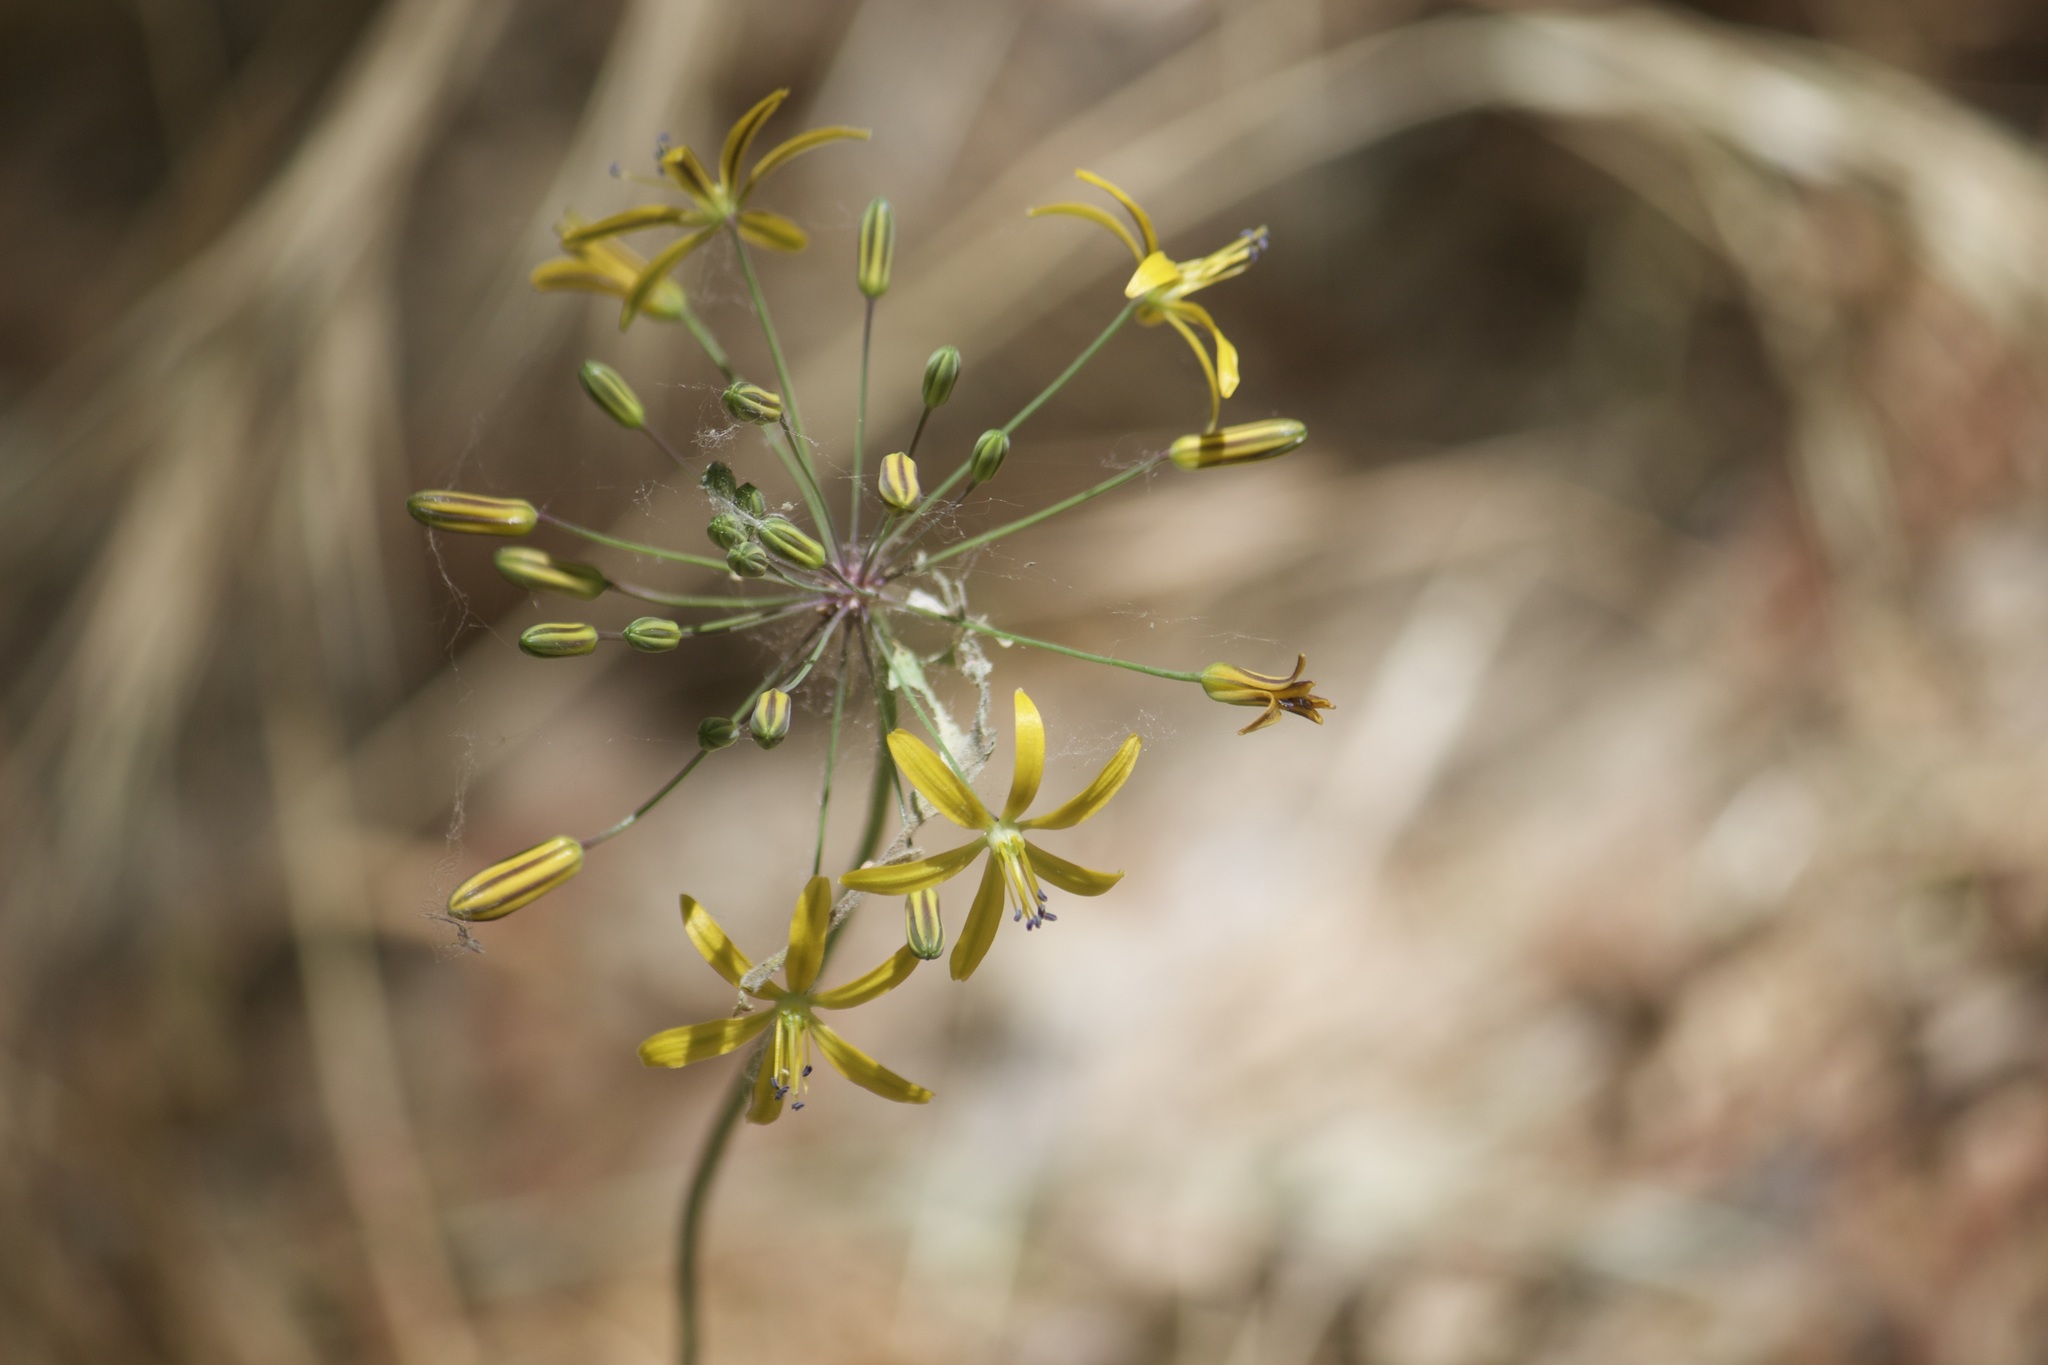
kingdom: Plantae
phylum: Tracheophyta
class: Liliopsida
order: Asparagales
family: Asparagaceae
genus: Bloomeria
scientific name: Bloomeria crocea
